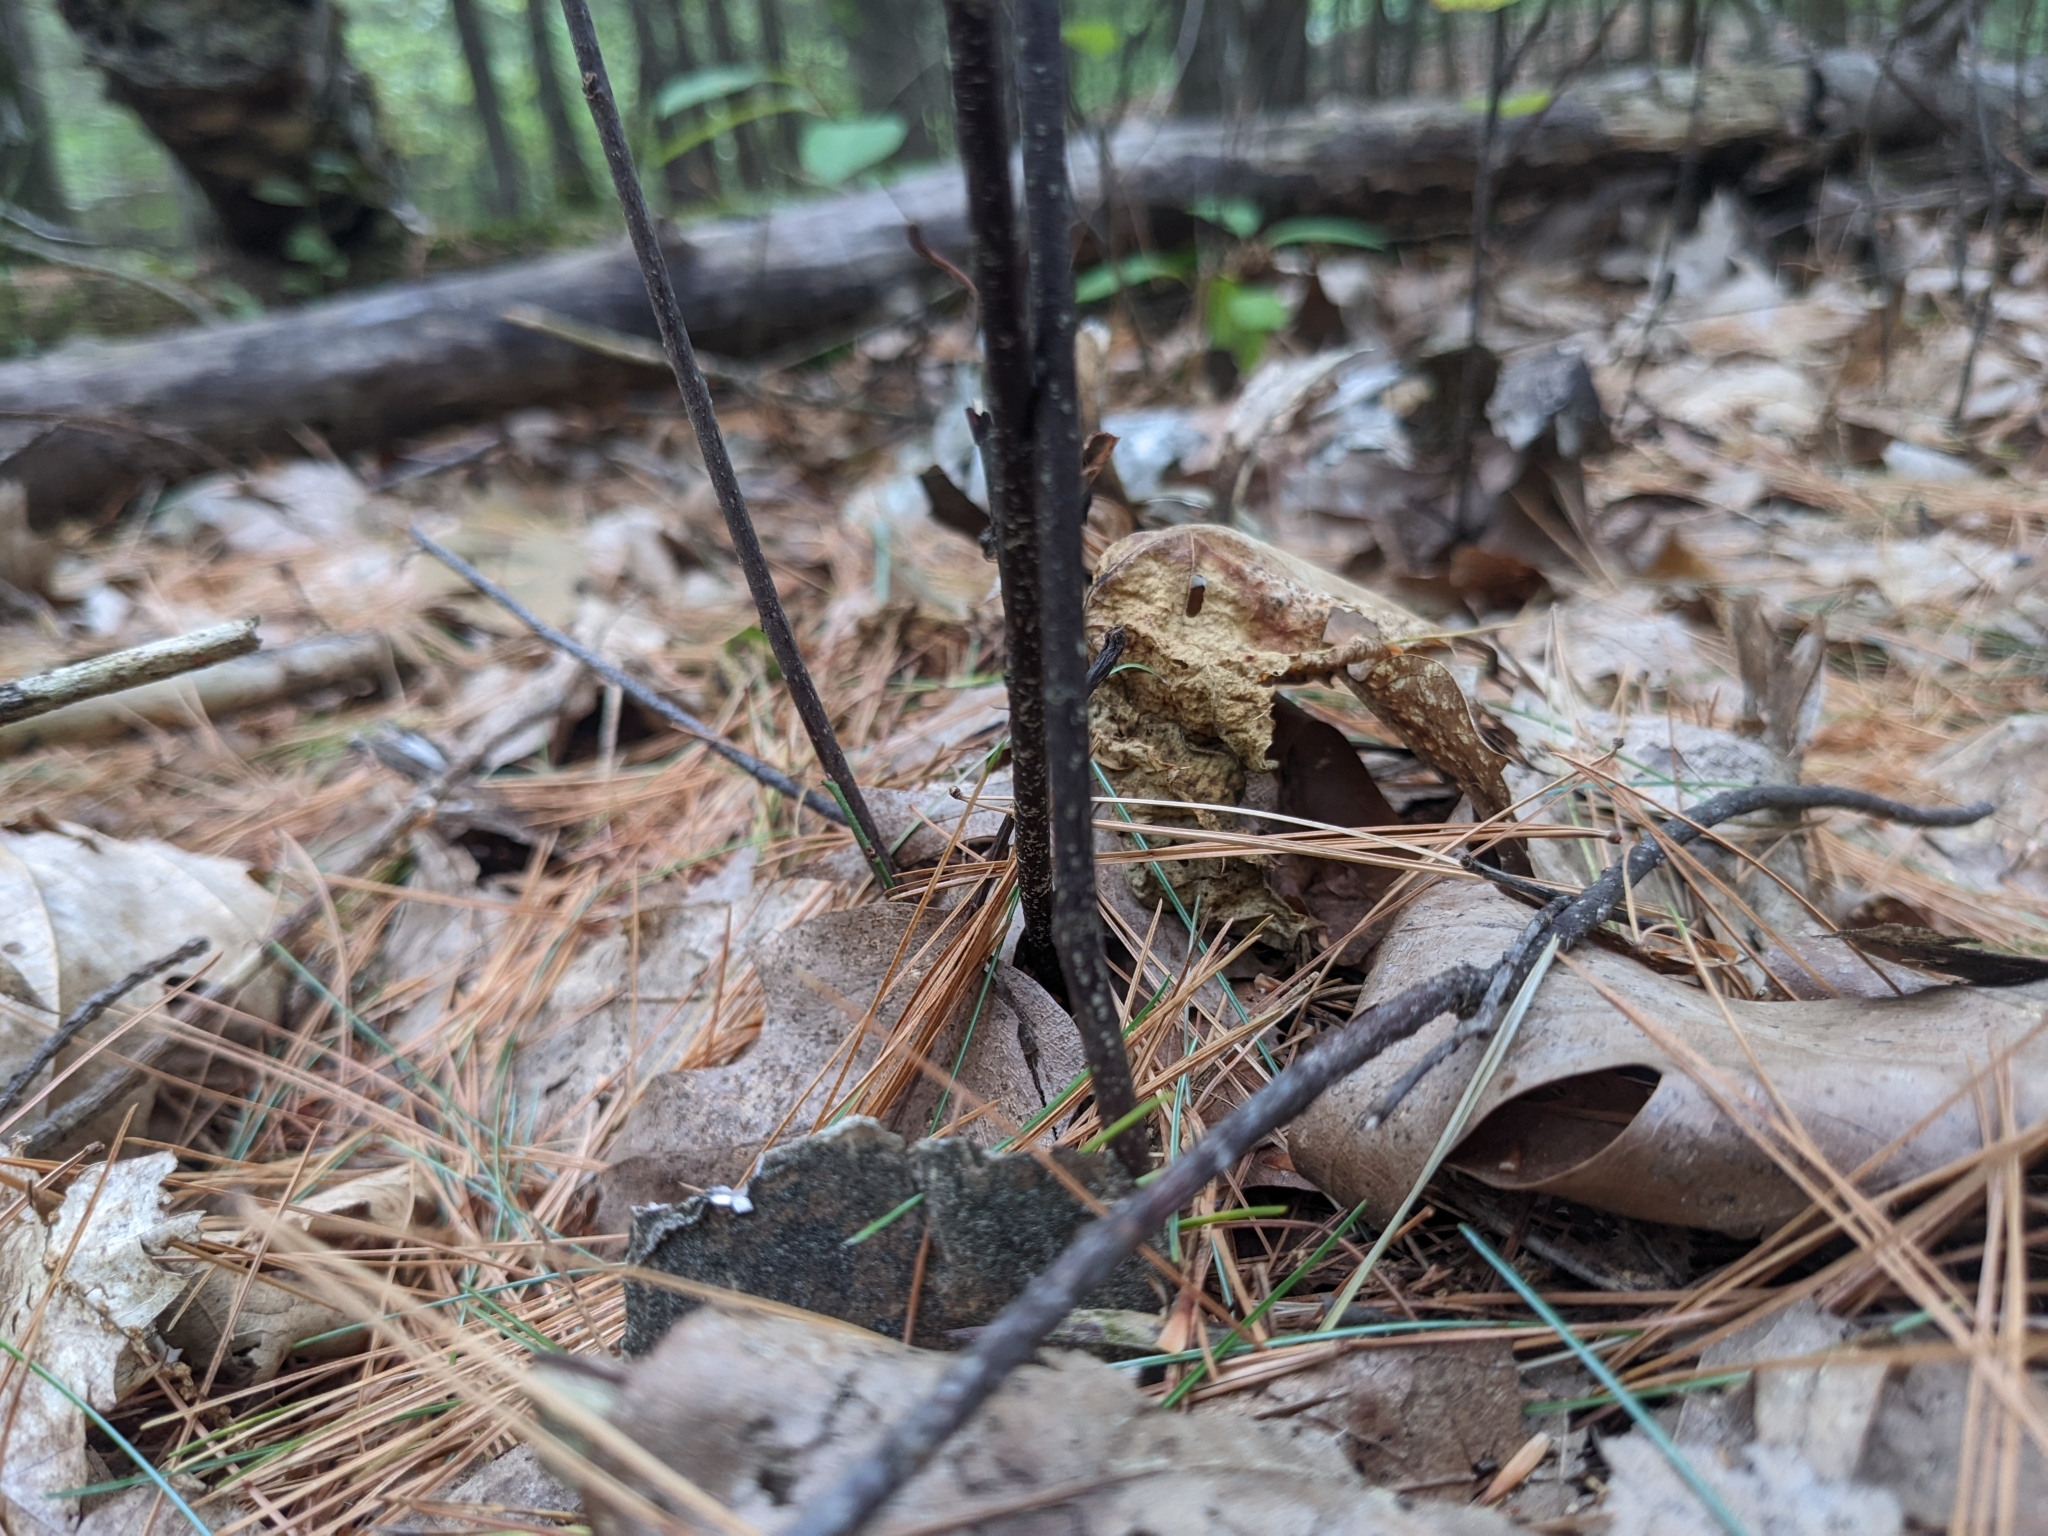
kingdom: Plantae
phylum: Tracheophyta
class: Magnoliopsida
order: Rosales
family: Rhamnaceae
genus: Frangula
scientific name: Frangula alnus
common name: Alder buckthorn
